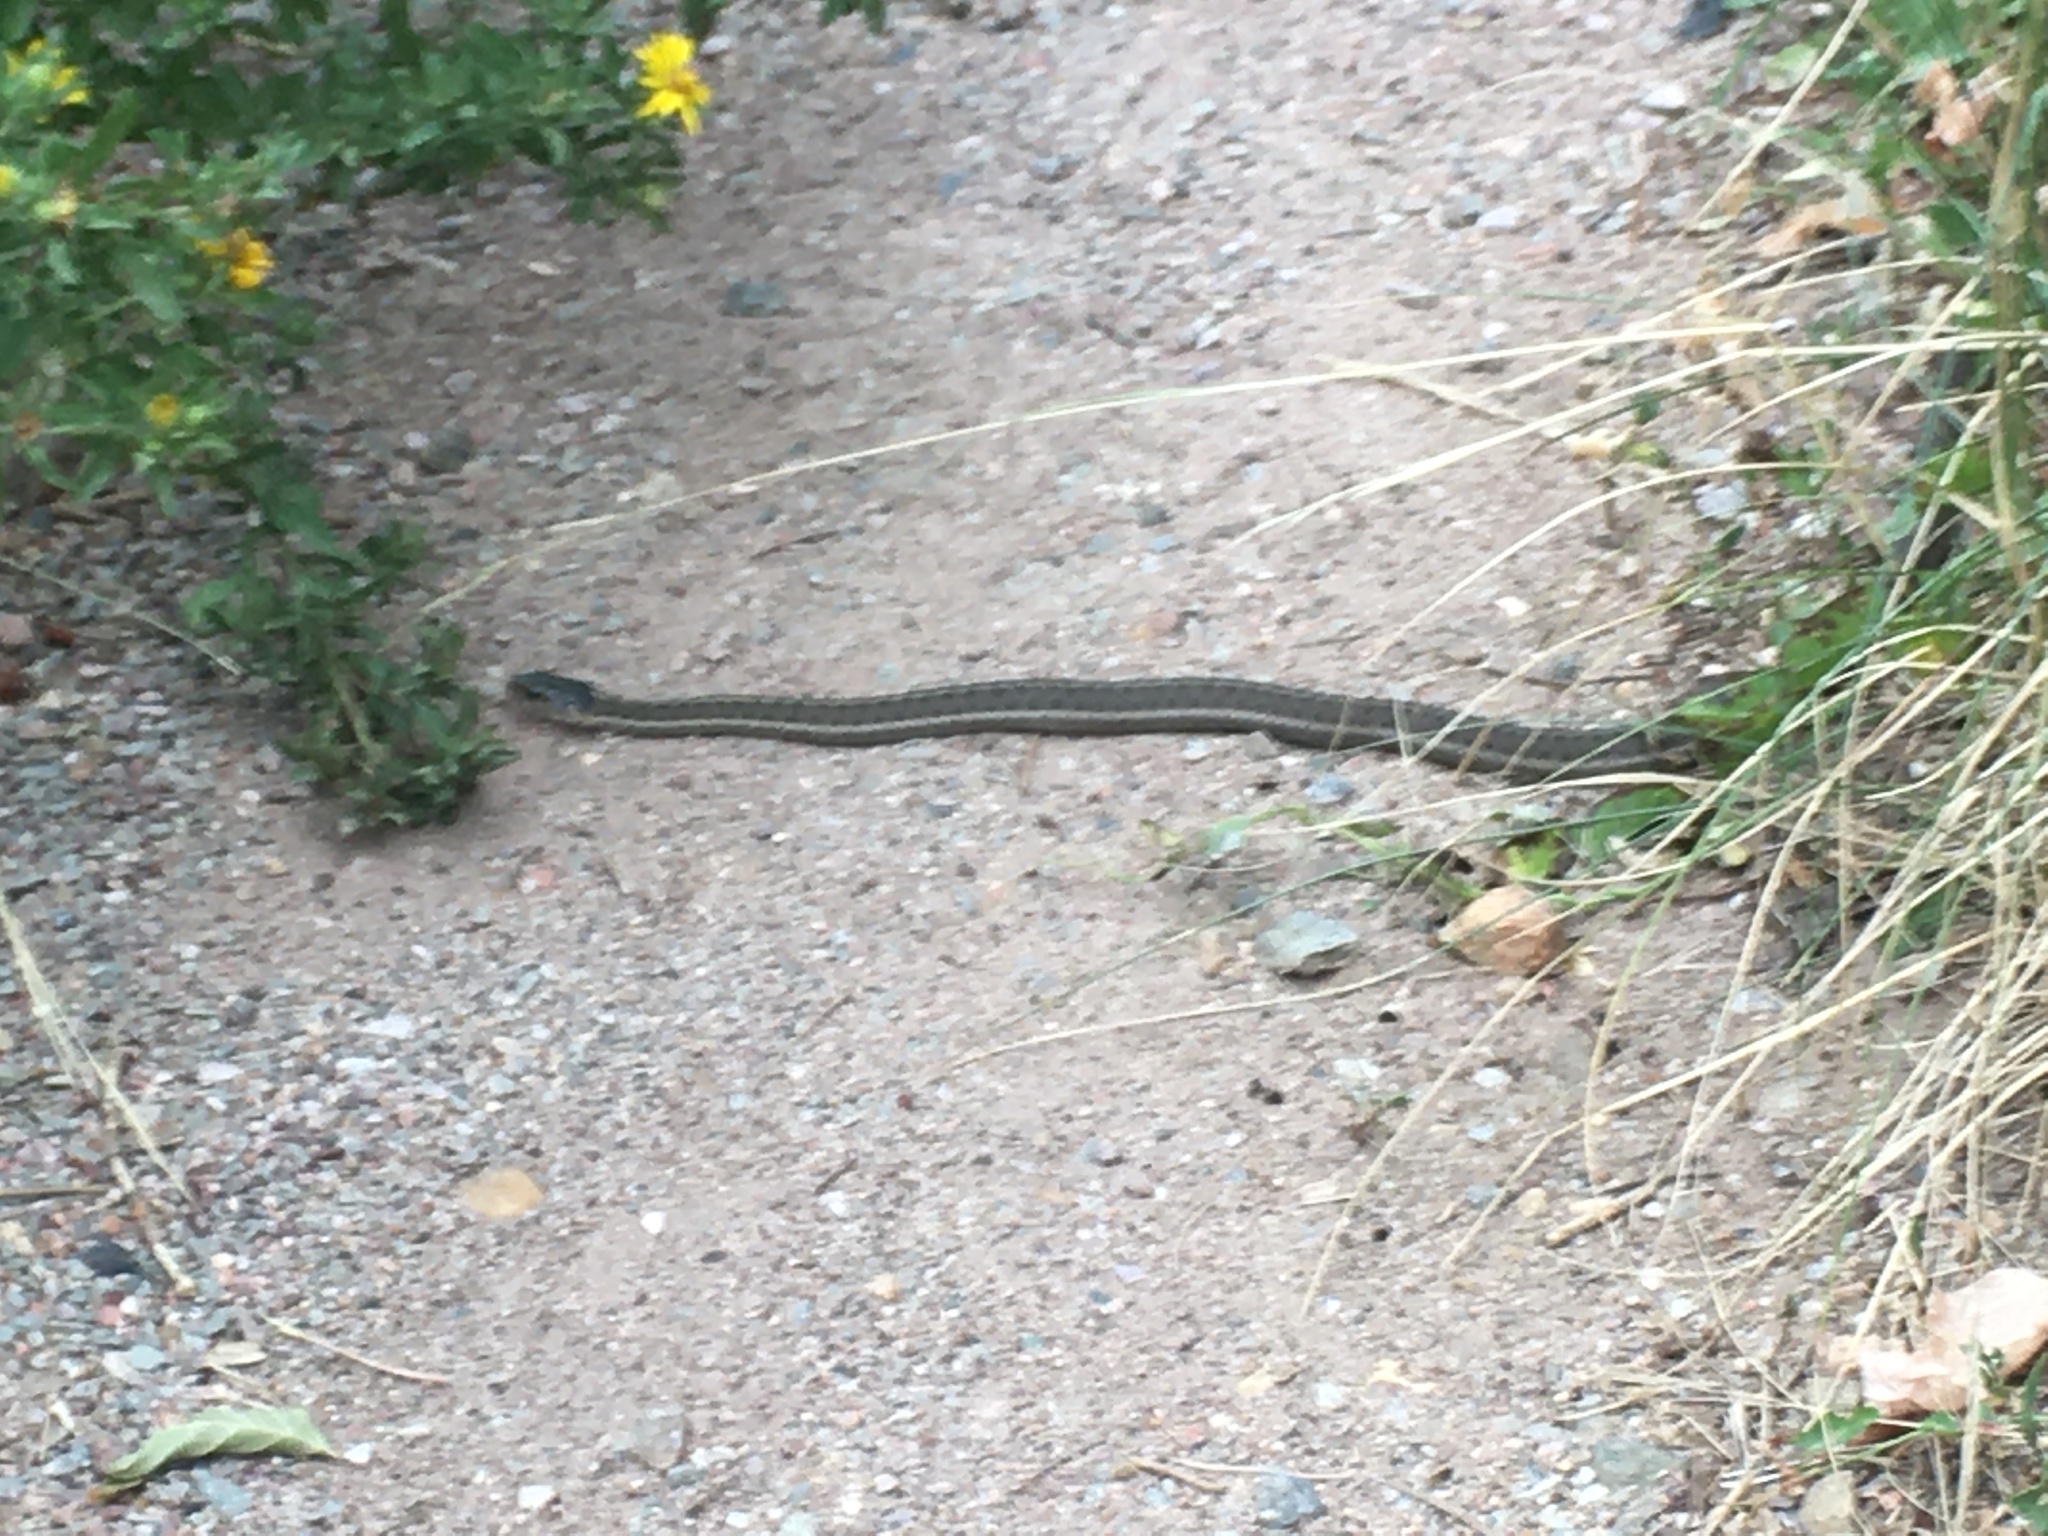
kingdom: Animalia
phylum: Chordata
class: Squamata
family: Colubridae
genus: Thamnophis
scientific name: Thamnophis elegans
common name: Western terrestrial garter snake
